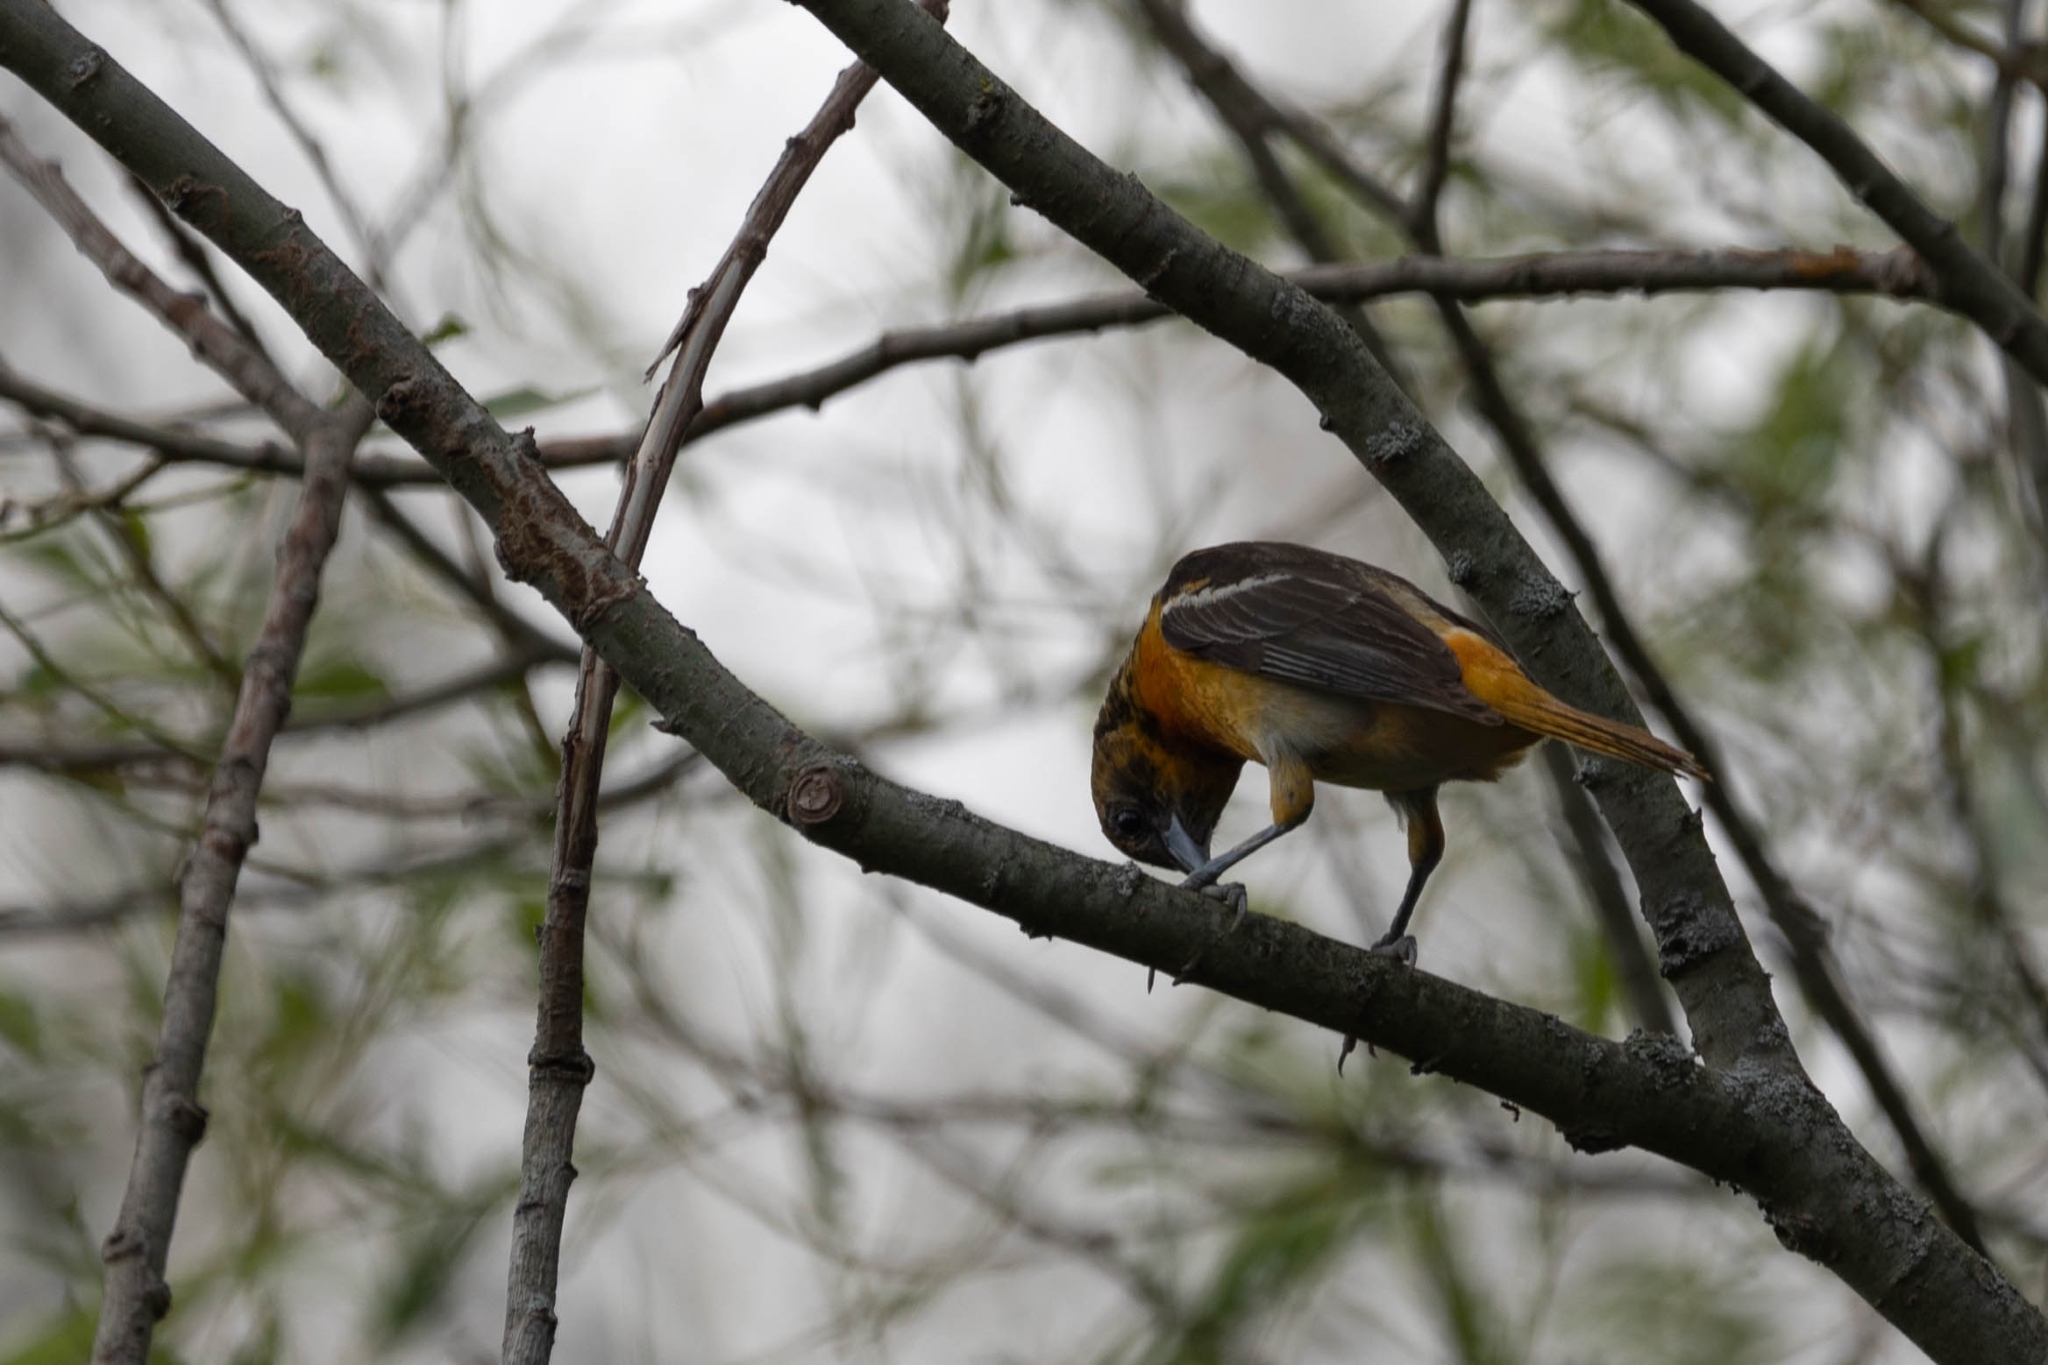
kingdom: Animalia
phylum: Chordata
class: Aves
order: Passeriformes
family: Icteridae
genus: Icterus
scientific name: Icterus galbula
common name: Baltimore oriole
